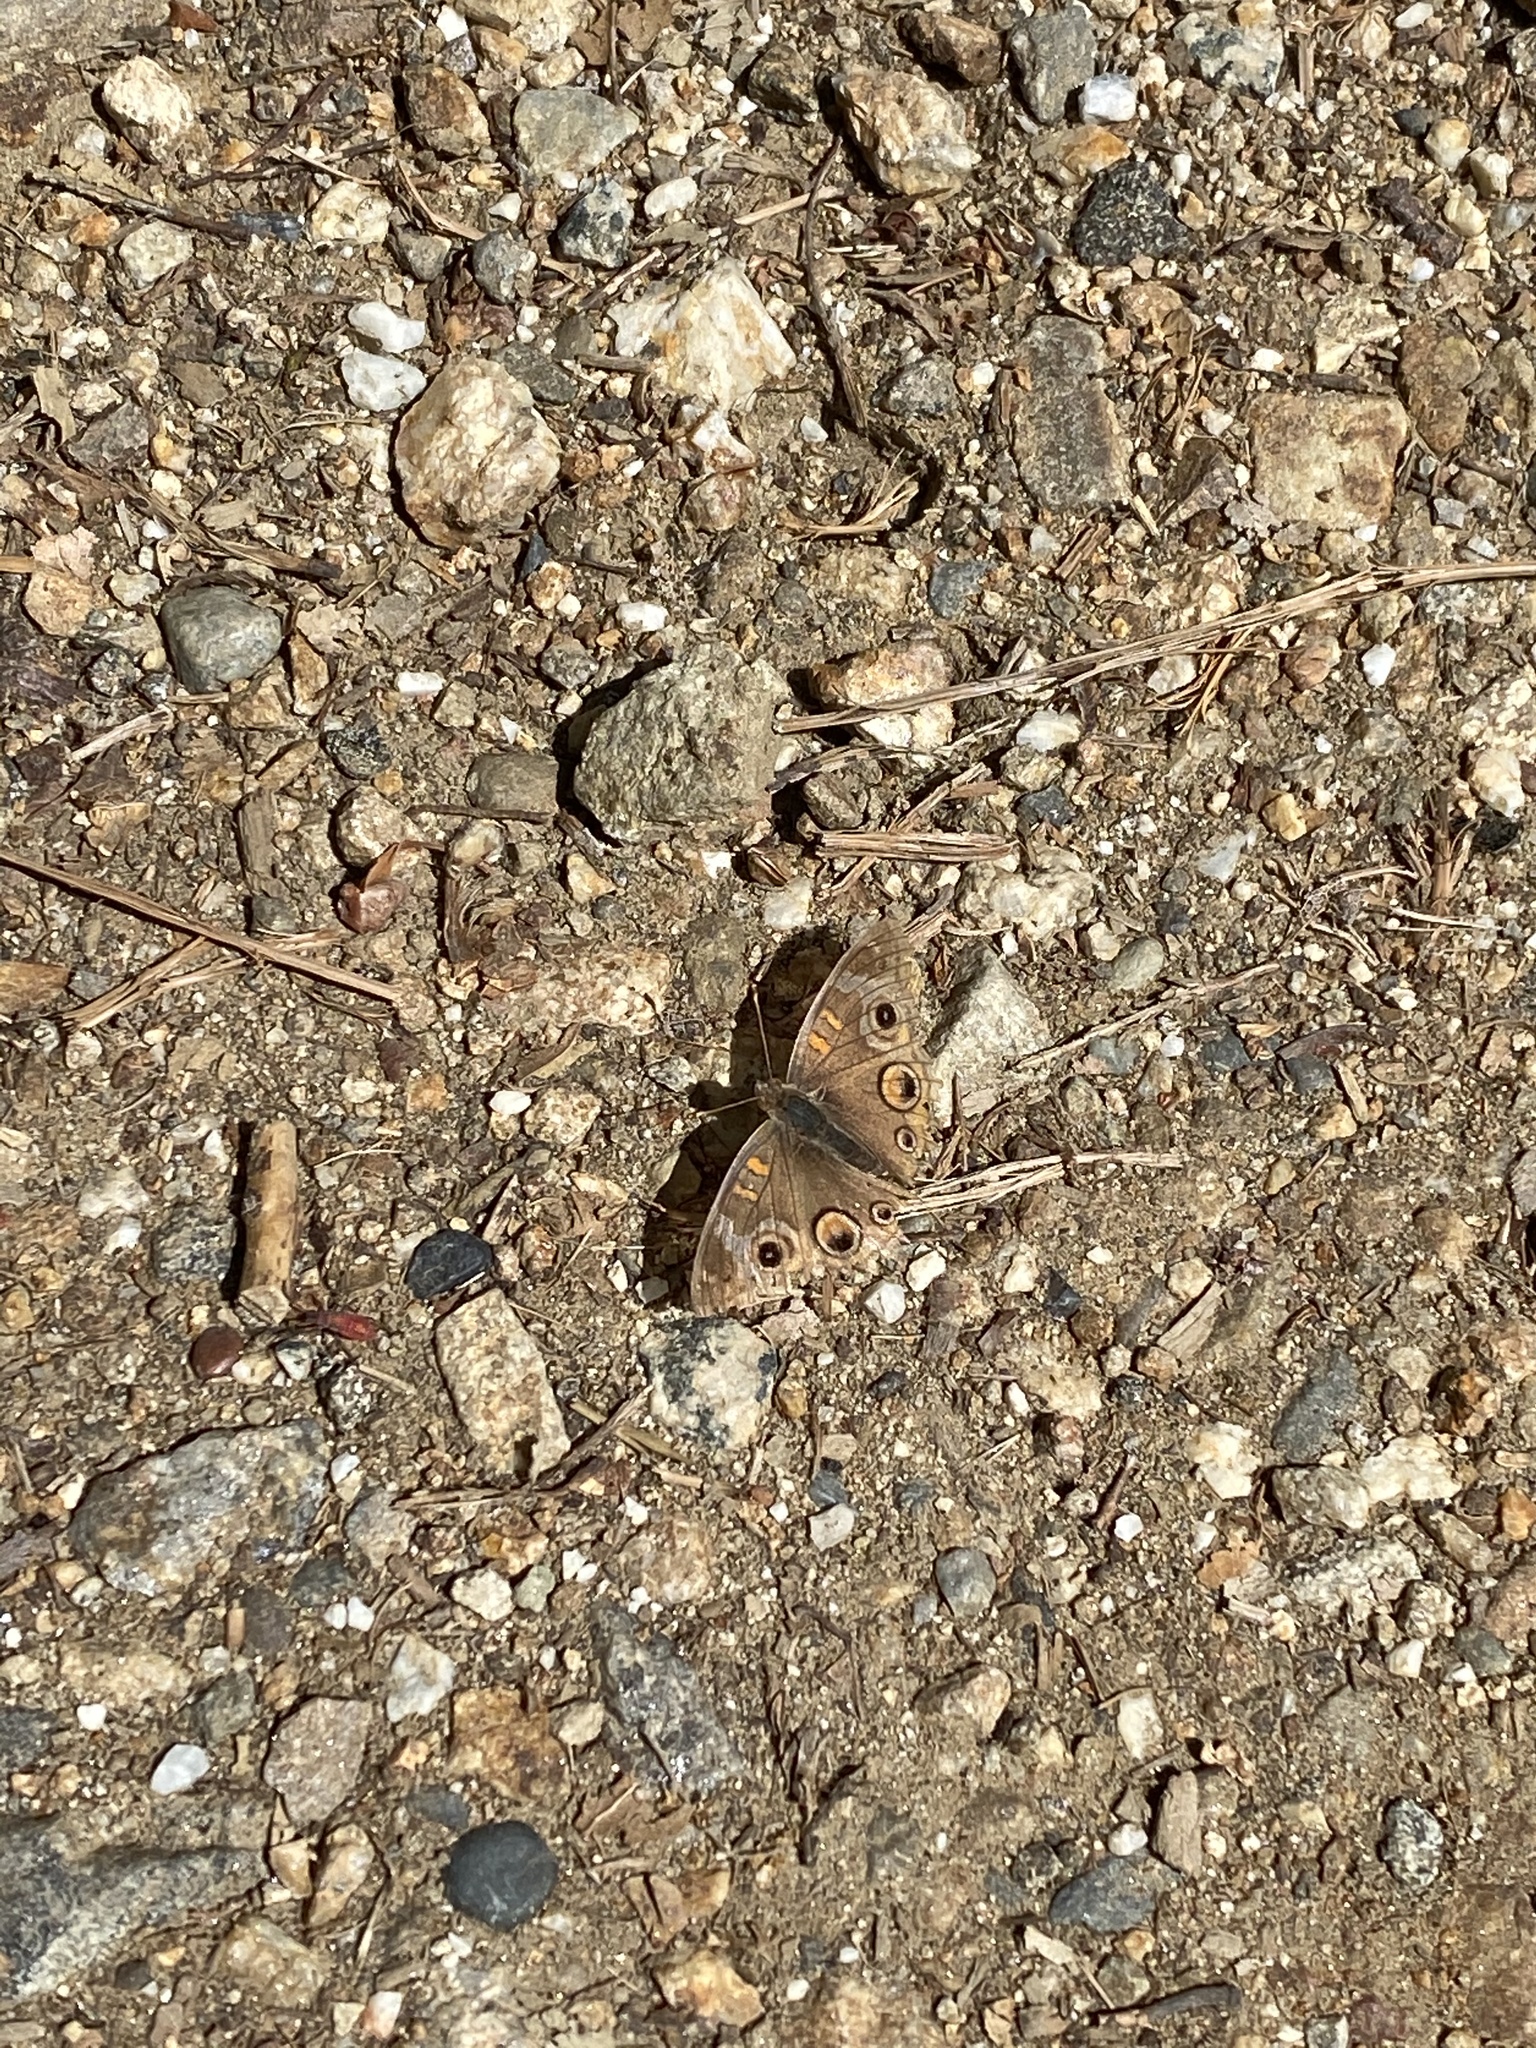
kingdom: Animalia
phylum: Arthropoda
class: Insecta
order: Lepidoptera
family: Nymphalidae
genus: Junonia
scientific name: Junonia grisea
